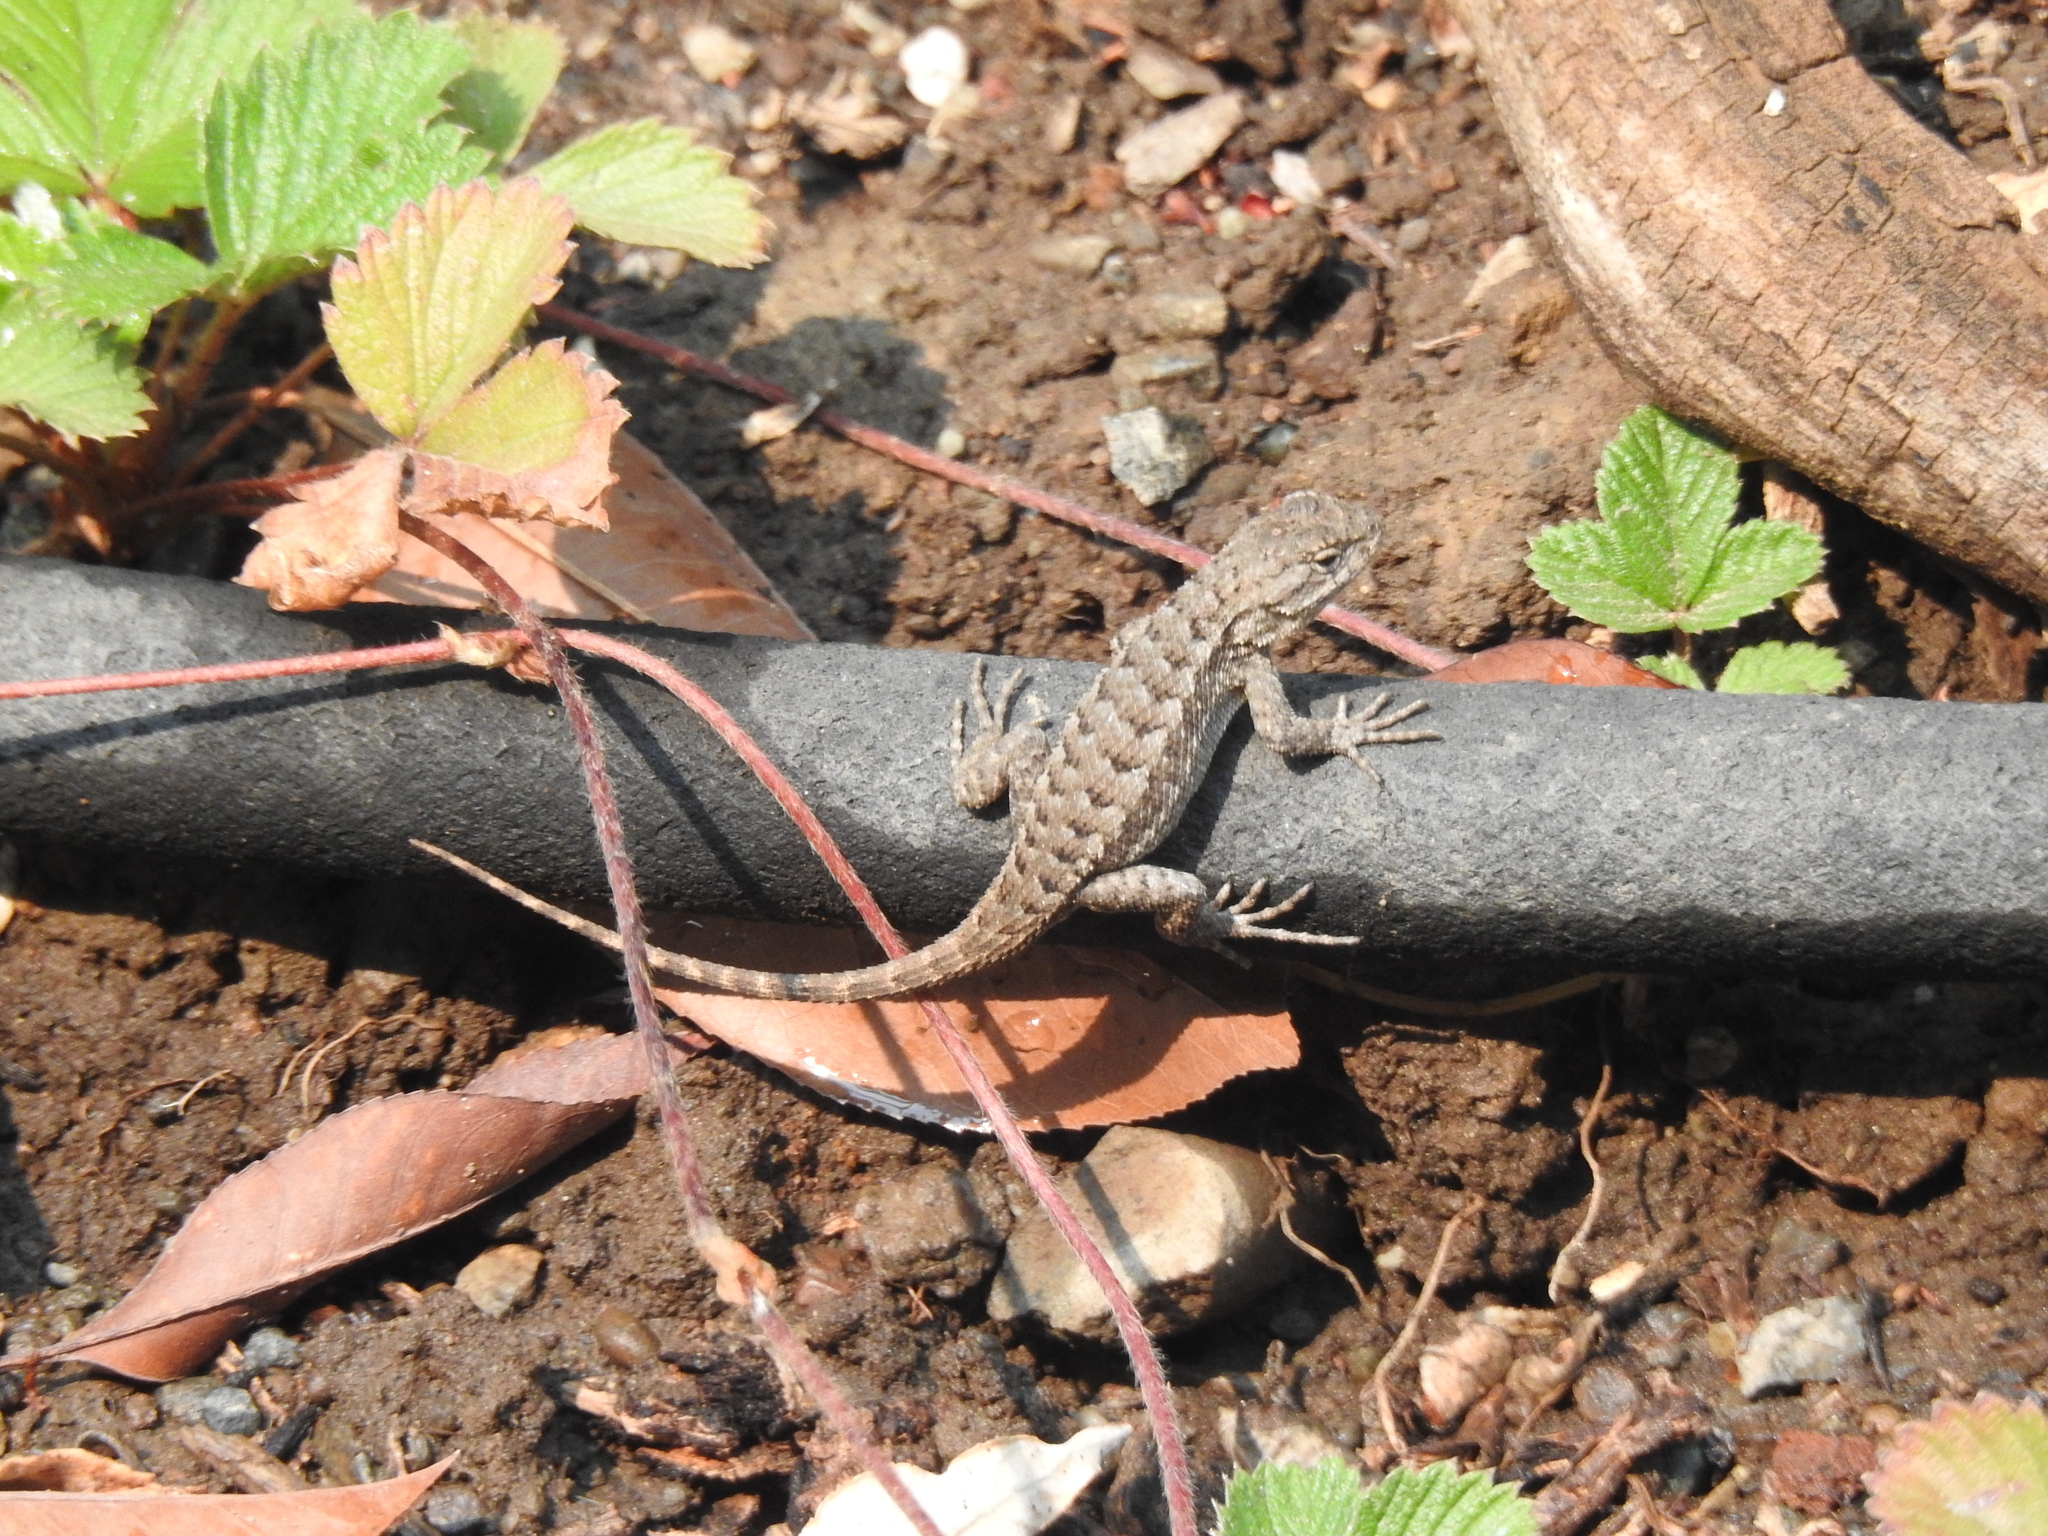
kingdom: Animalia
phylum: Chordata
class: Squamata
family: Phrynosomatidae
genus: Sceloporus
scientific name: Sceloporus occidentalis
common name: Western fence lizard
